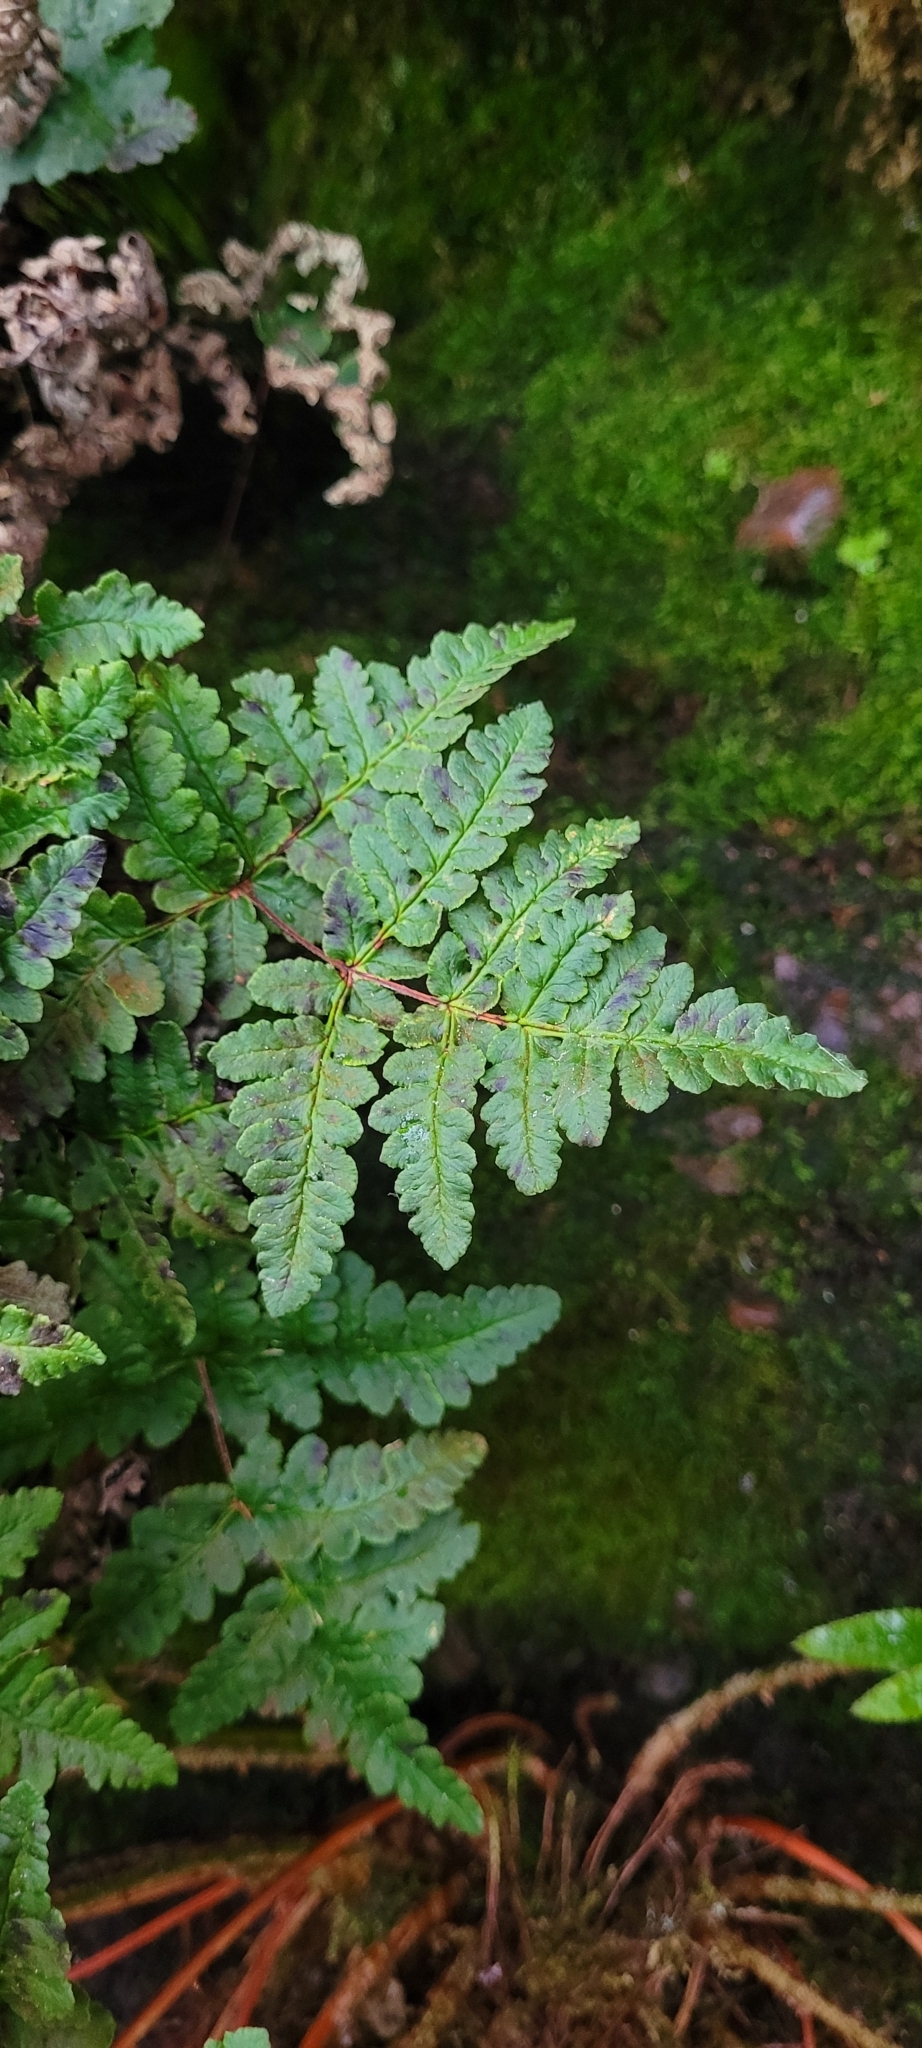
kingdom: Plantae
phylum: Tracheophyta
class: Polypodiopsida
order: Polypodiales
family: Pteridaceae
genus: Pentagramma
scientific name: Pentagramma triangularis
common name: Gold fern
